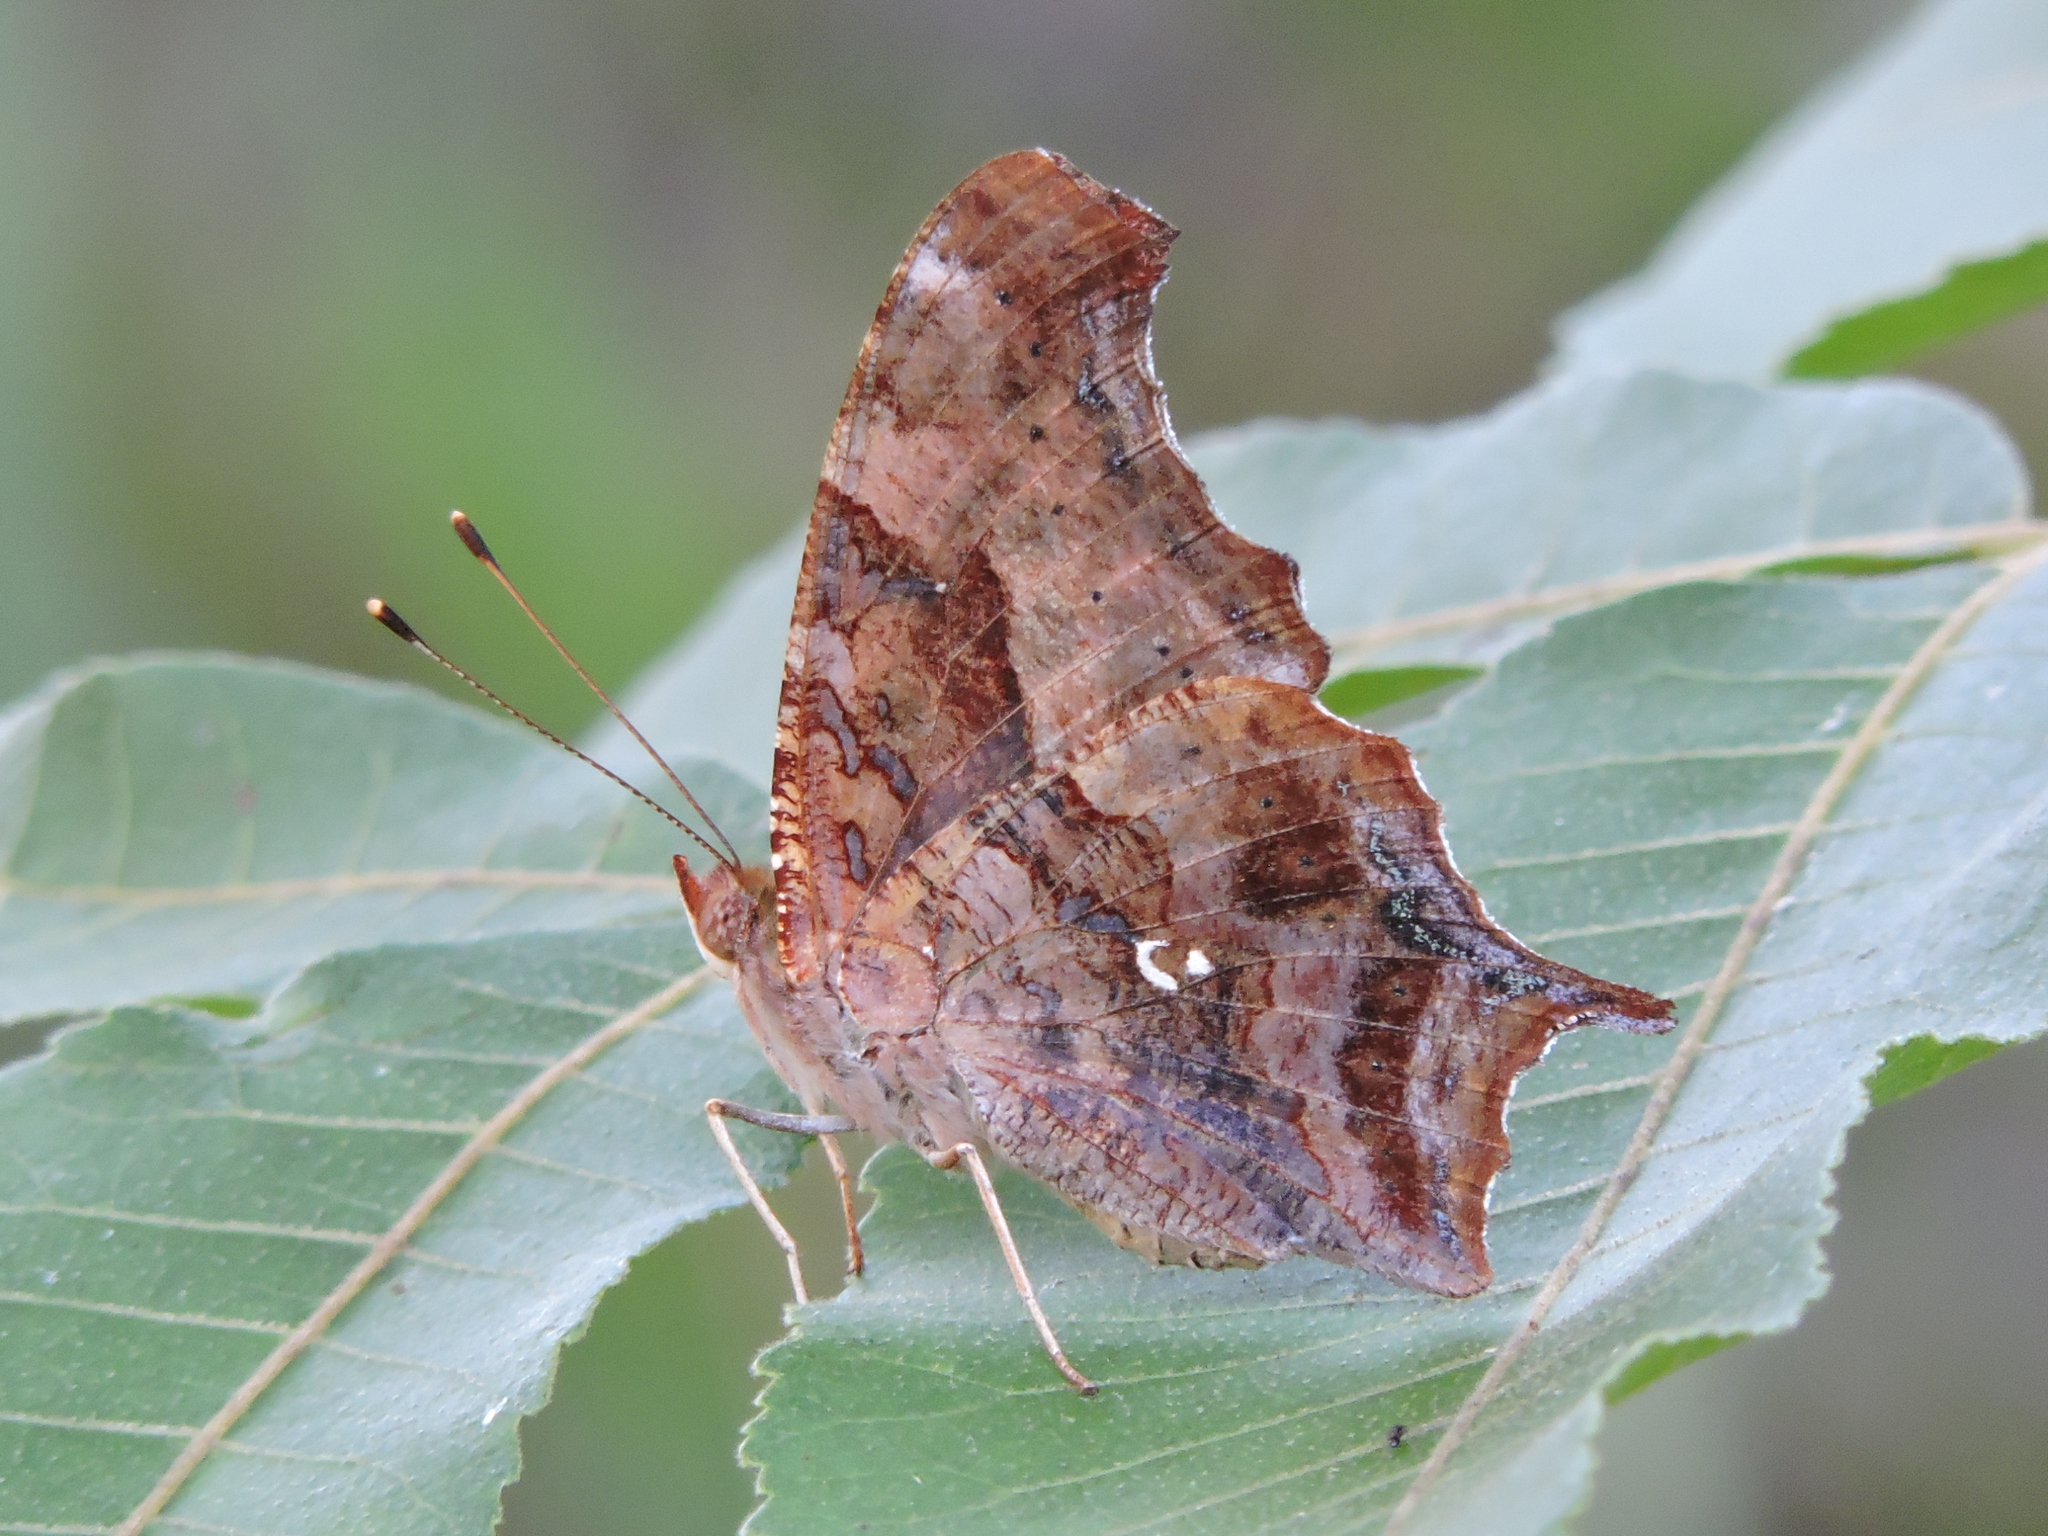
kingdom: Animalia
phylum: Arthropoda
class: Insecta
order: Lepidoptera
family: Nymphalidae
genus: Polygonia
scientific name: Polygonia interrogationis
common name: Question mark
